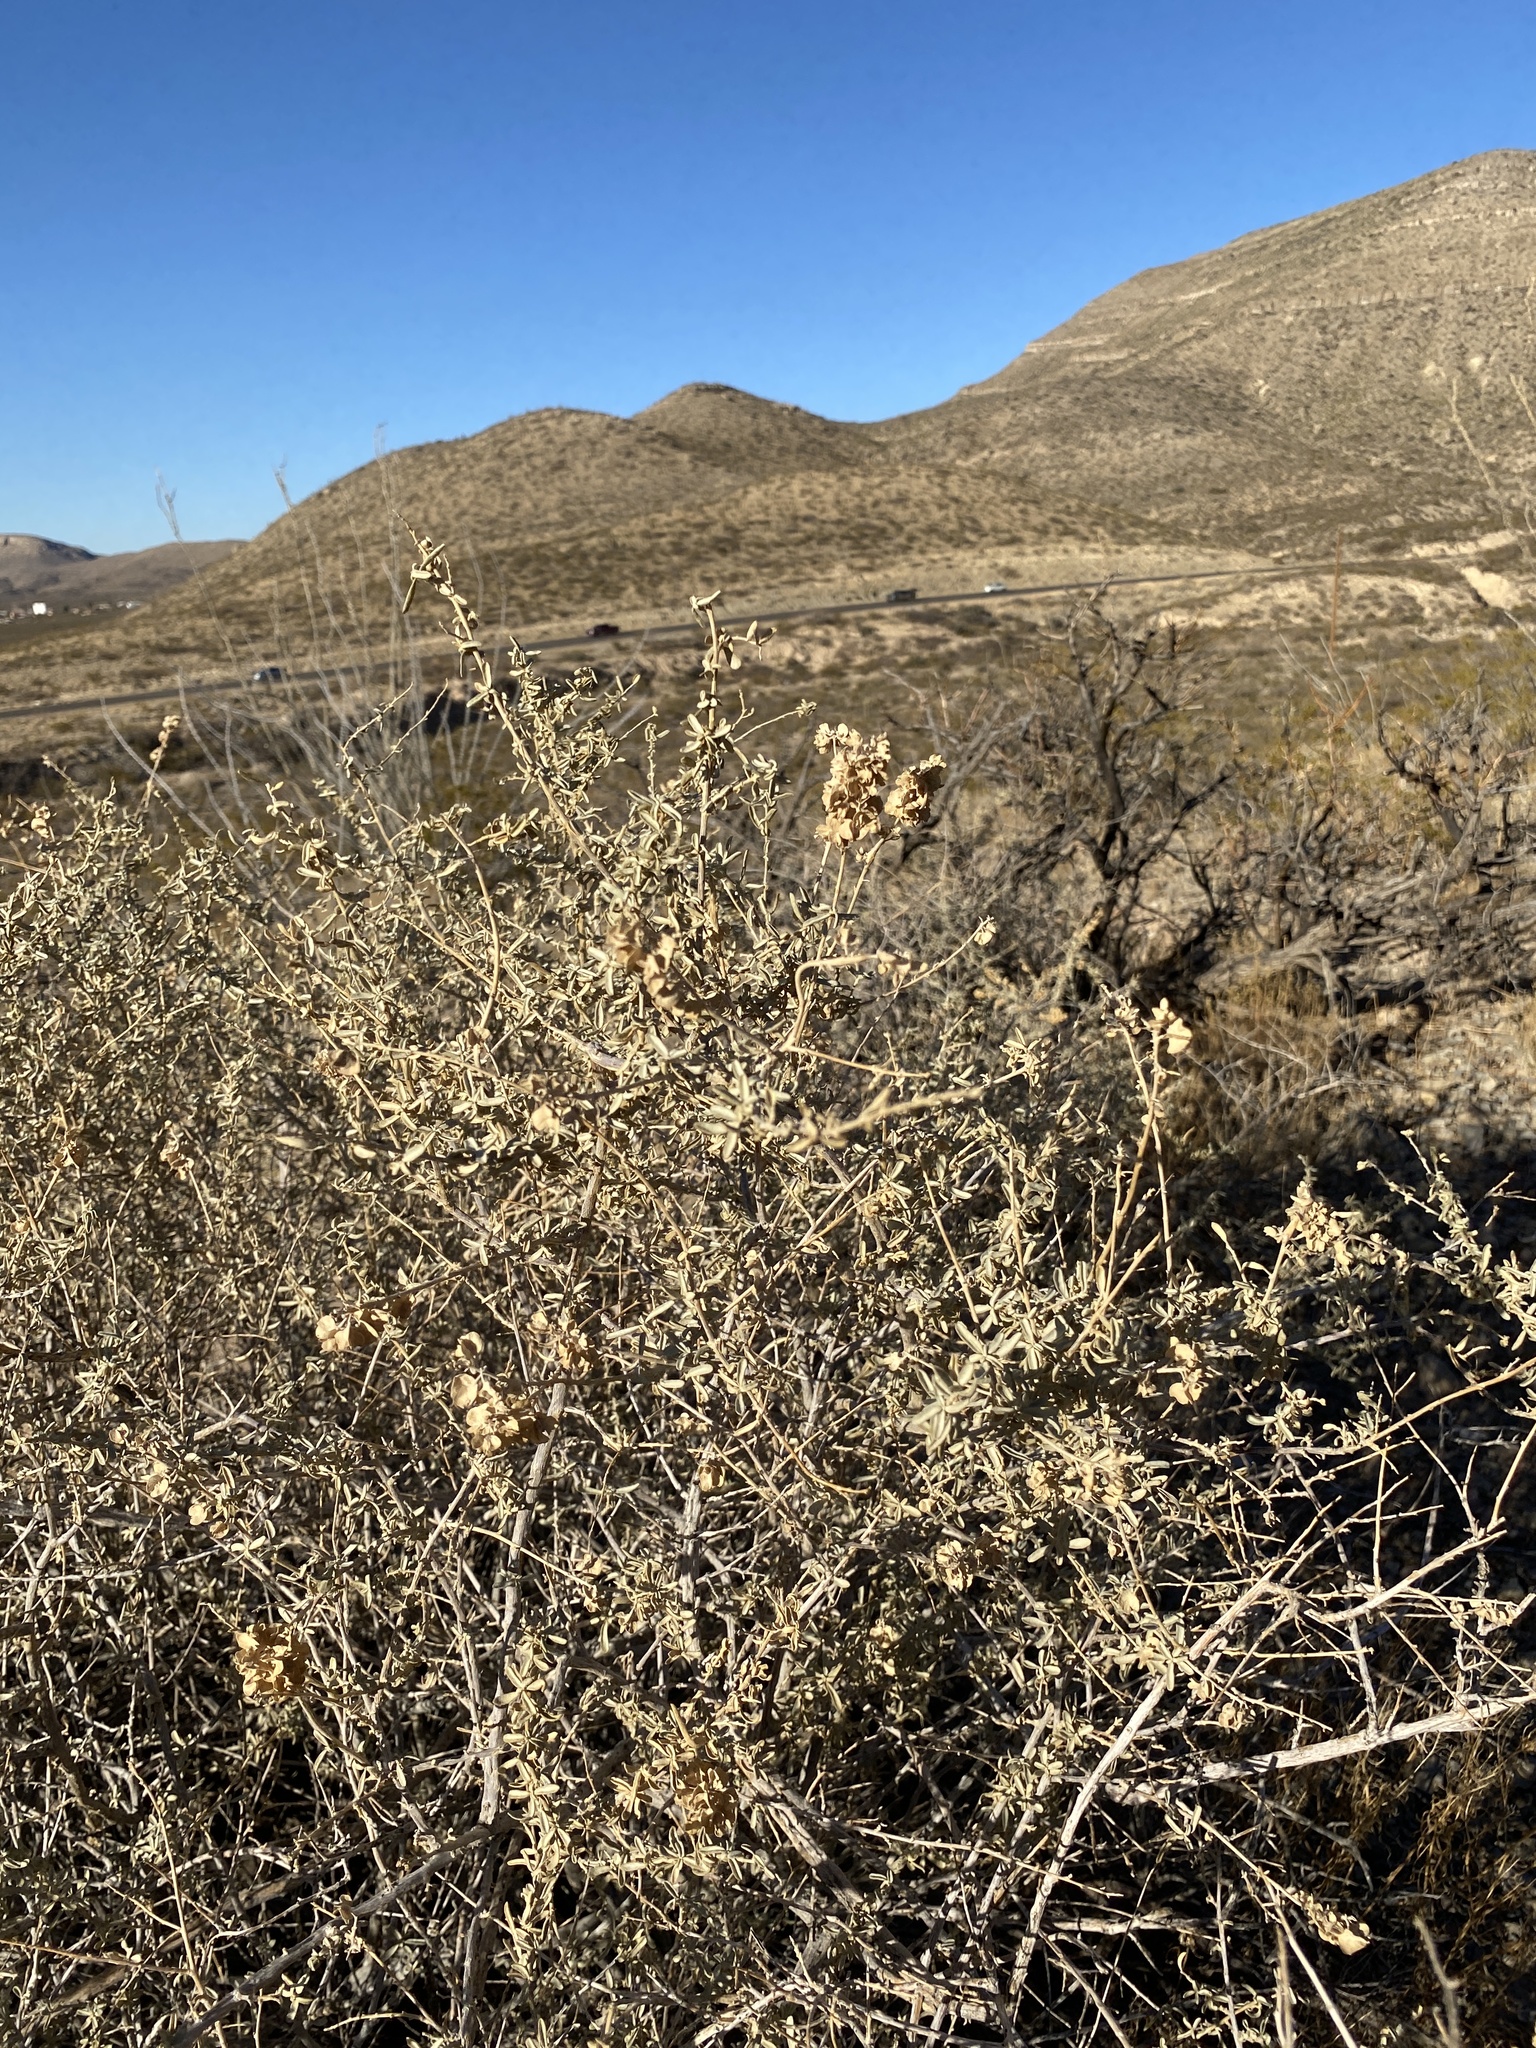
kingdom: Plantae
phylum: Tracheophyta
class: Magnoliopsida
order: Caryophyllales
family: Amaranthaceae
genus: Atriplex
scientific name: Atriplex canescens
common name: Four-wing saltbush
